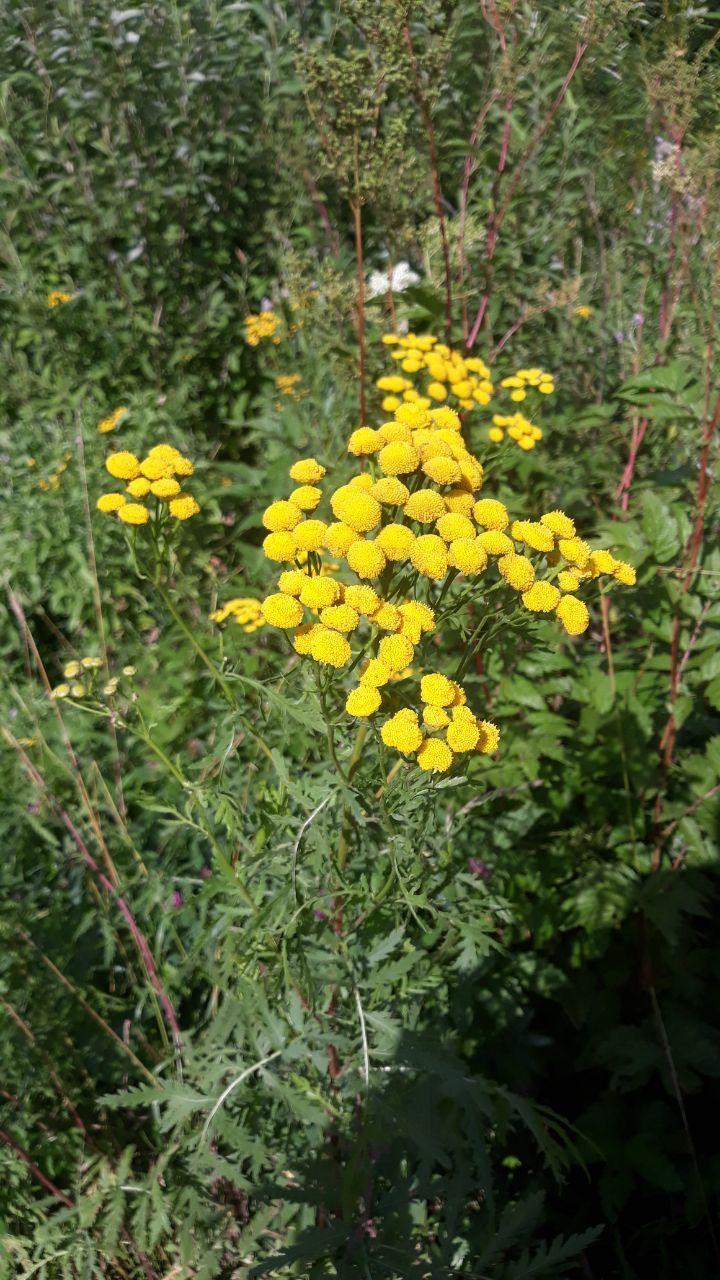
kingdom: Plantae
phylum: Tracheophyta
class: Magnoliopsida
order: Asterales
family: Asteraceae
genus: Tanacetum
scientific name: Tanacetum vulgare
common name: Common tansy
